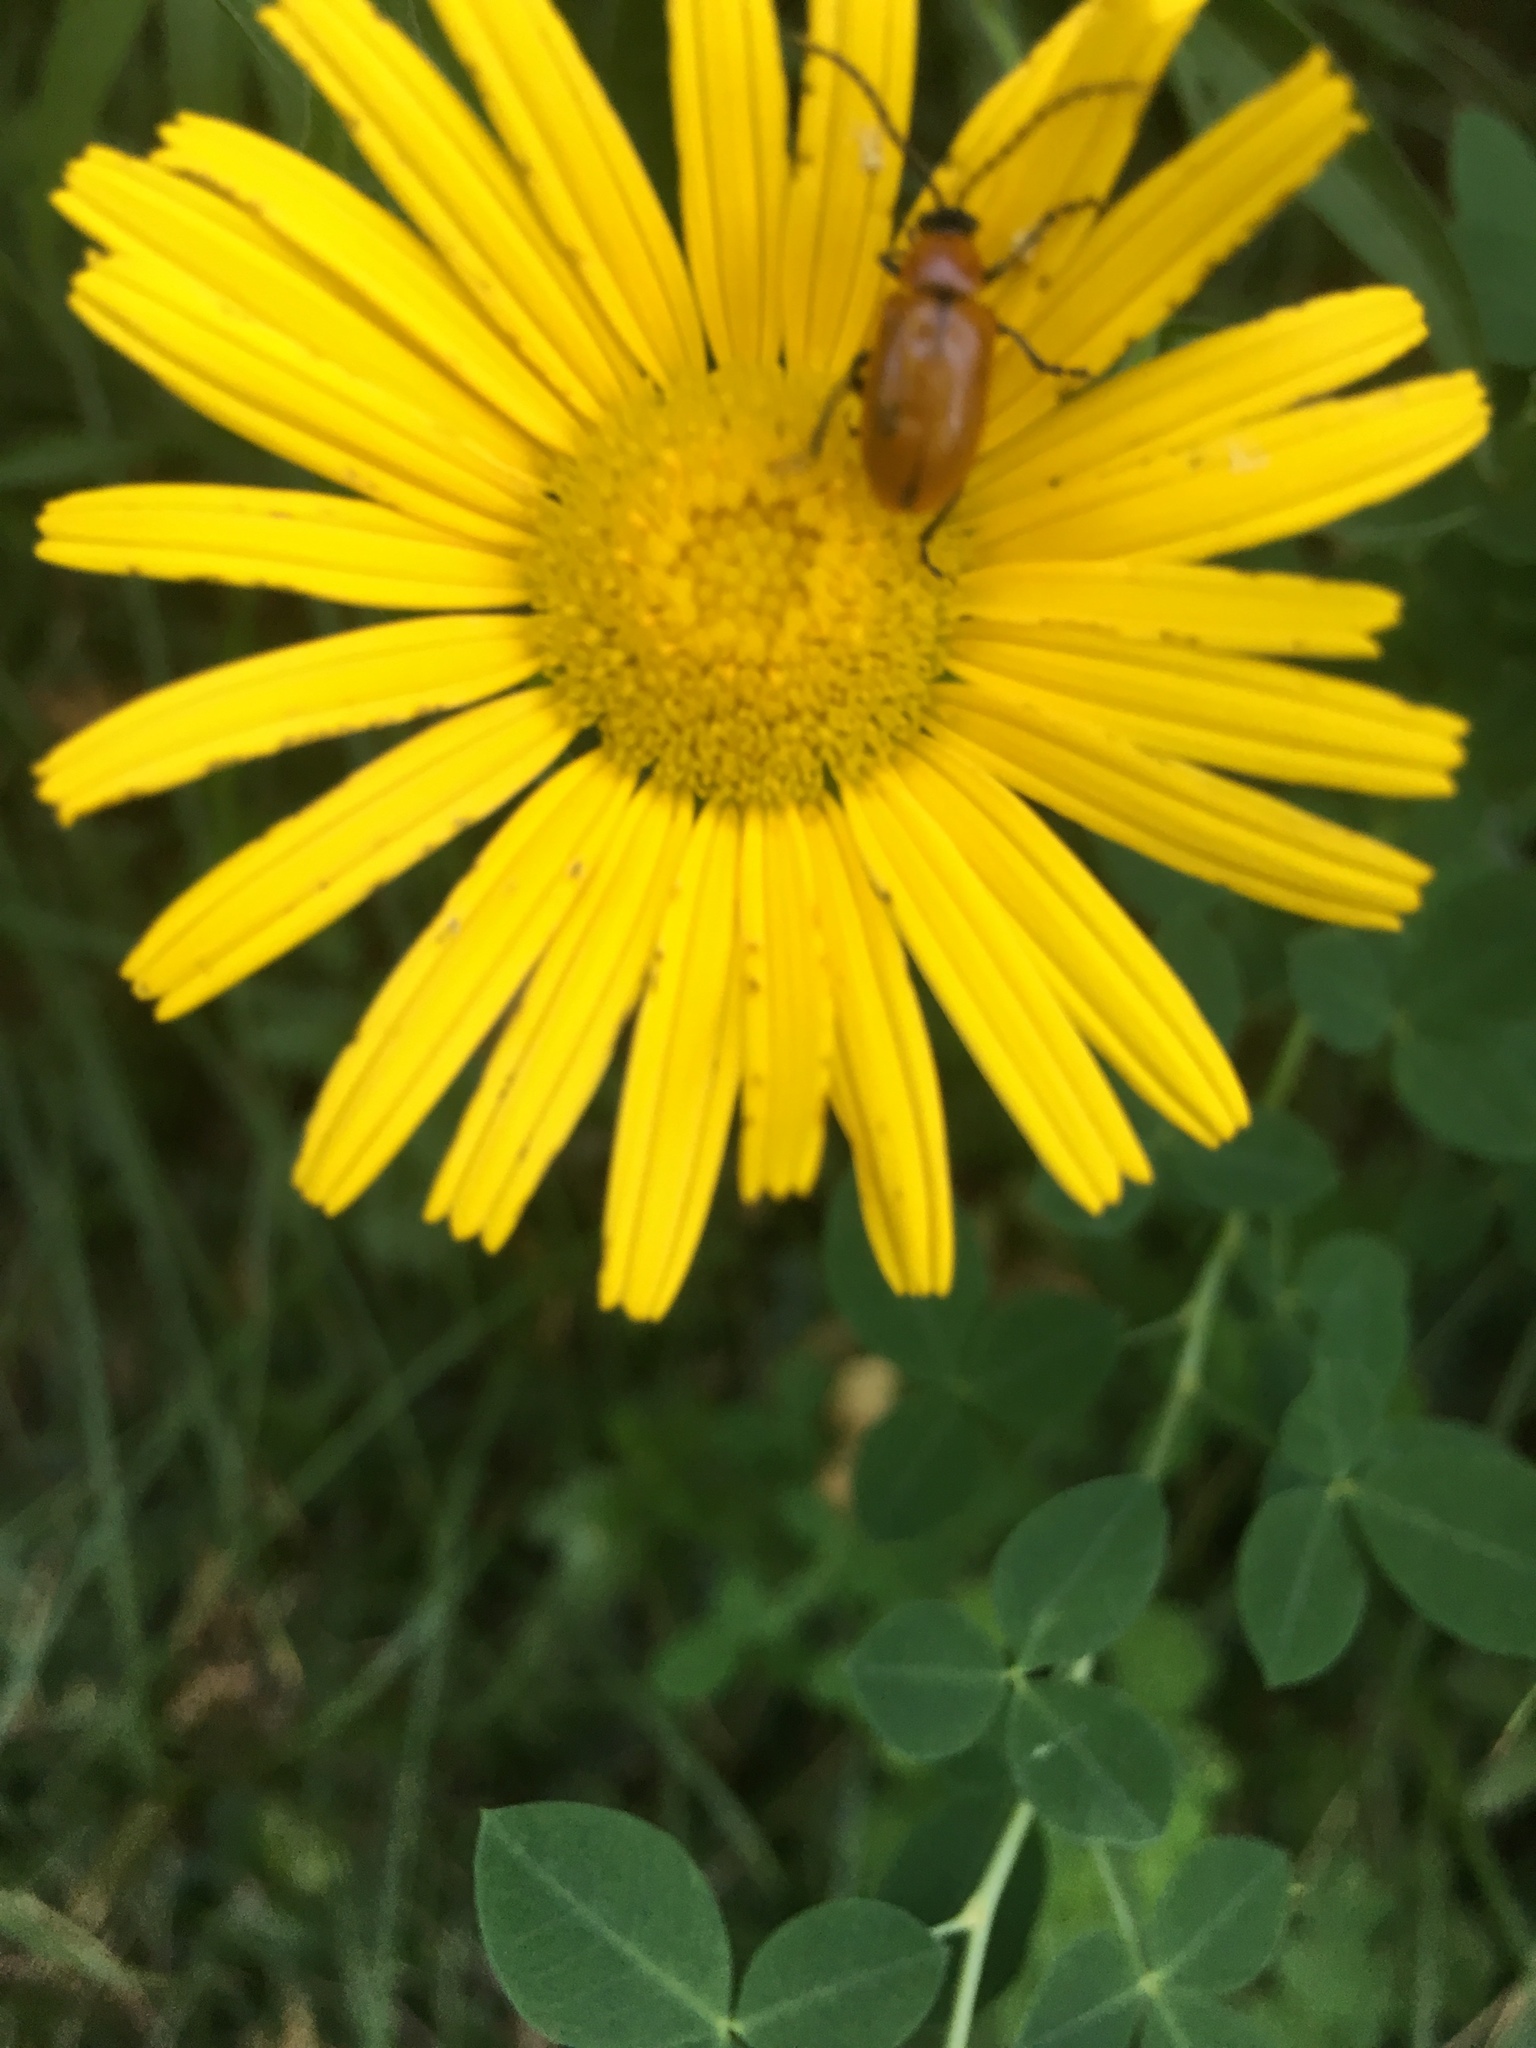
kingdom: Animalia
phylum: Arthropoda
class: Insecta
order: Coleoptera
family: Chrysomelidae
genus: Exosoma
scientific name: Exosoma lusitanicum
